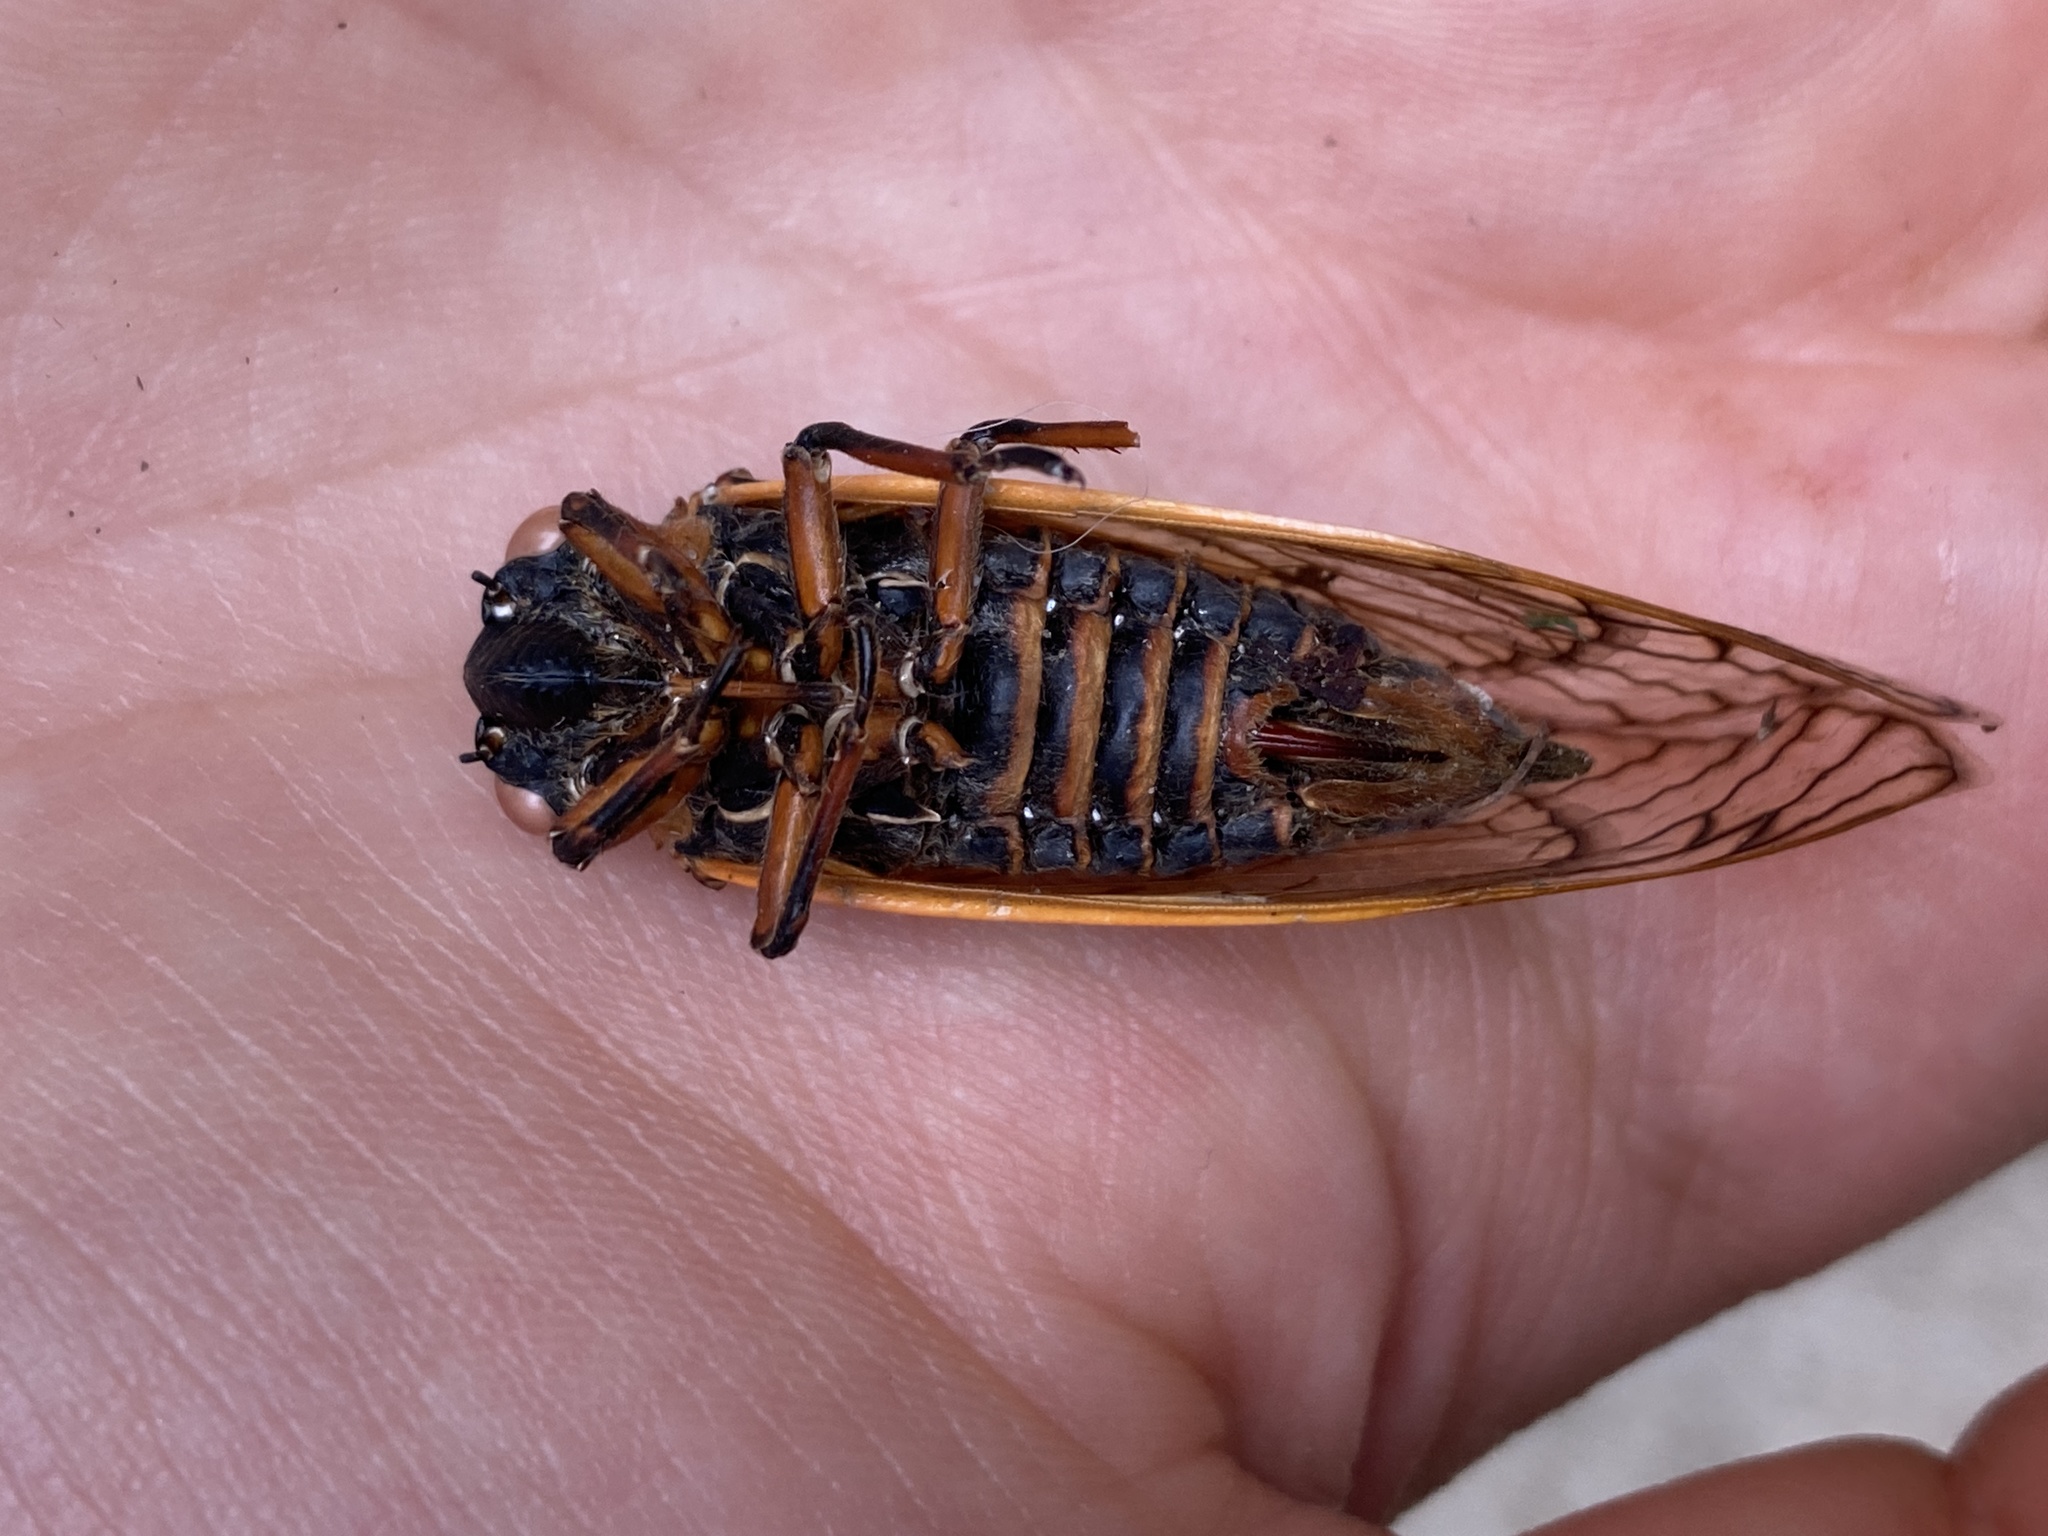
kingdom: Animalia
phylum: Arthropoda
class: Insecta
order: Hemiptera
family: Cicadidae
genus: Magicicada
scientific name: Magicicada septendecim
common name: Periodical cicada
